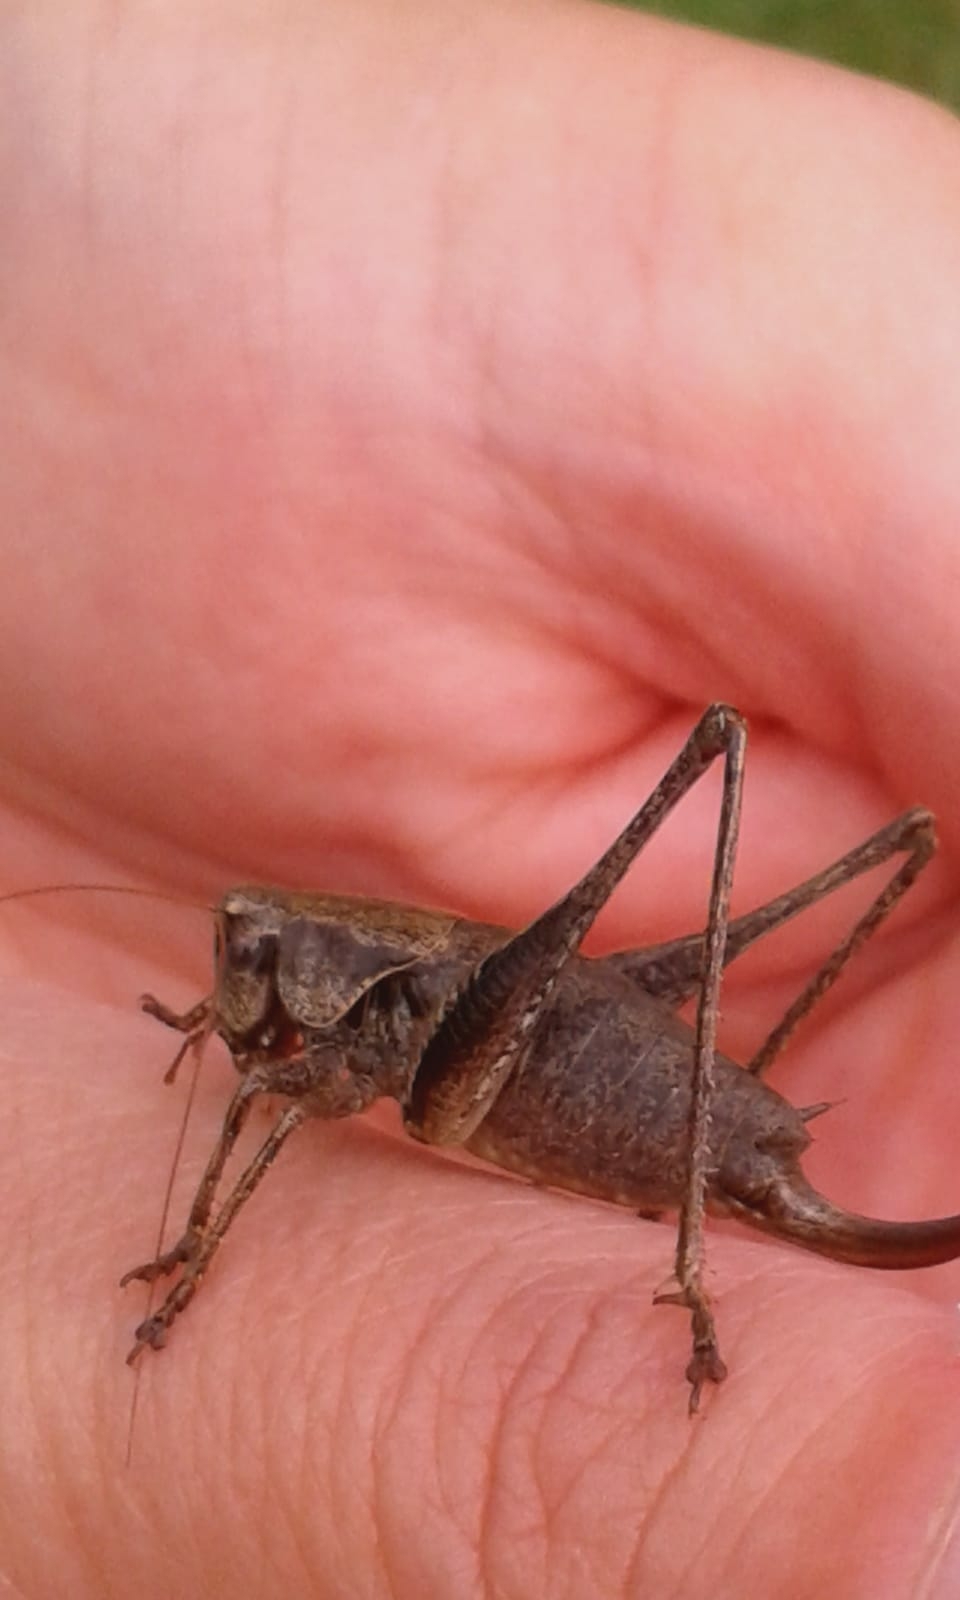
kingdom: Animalia
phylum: Arthropoda
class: Insecta
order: Orthoptera
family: Tettigoniidae
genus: Pholidoptera
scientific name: Pholidoptera griseoaptera
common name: Dark bush-cricket
